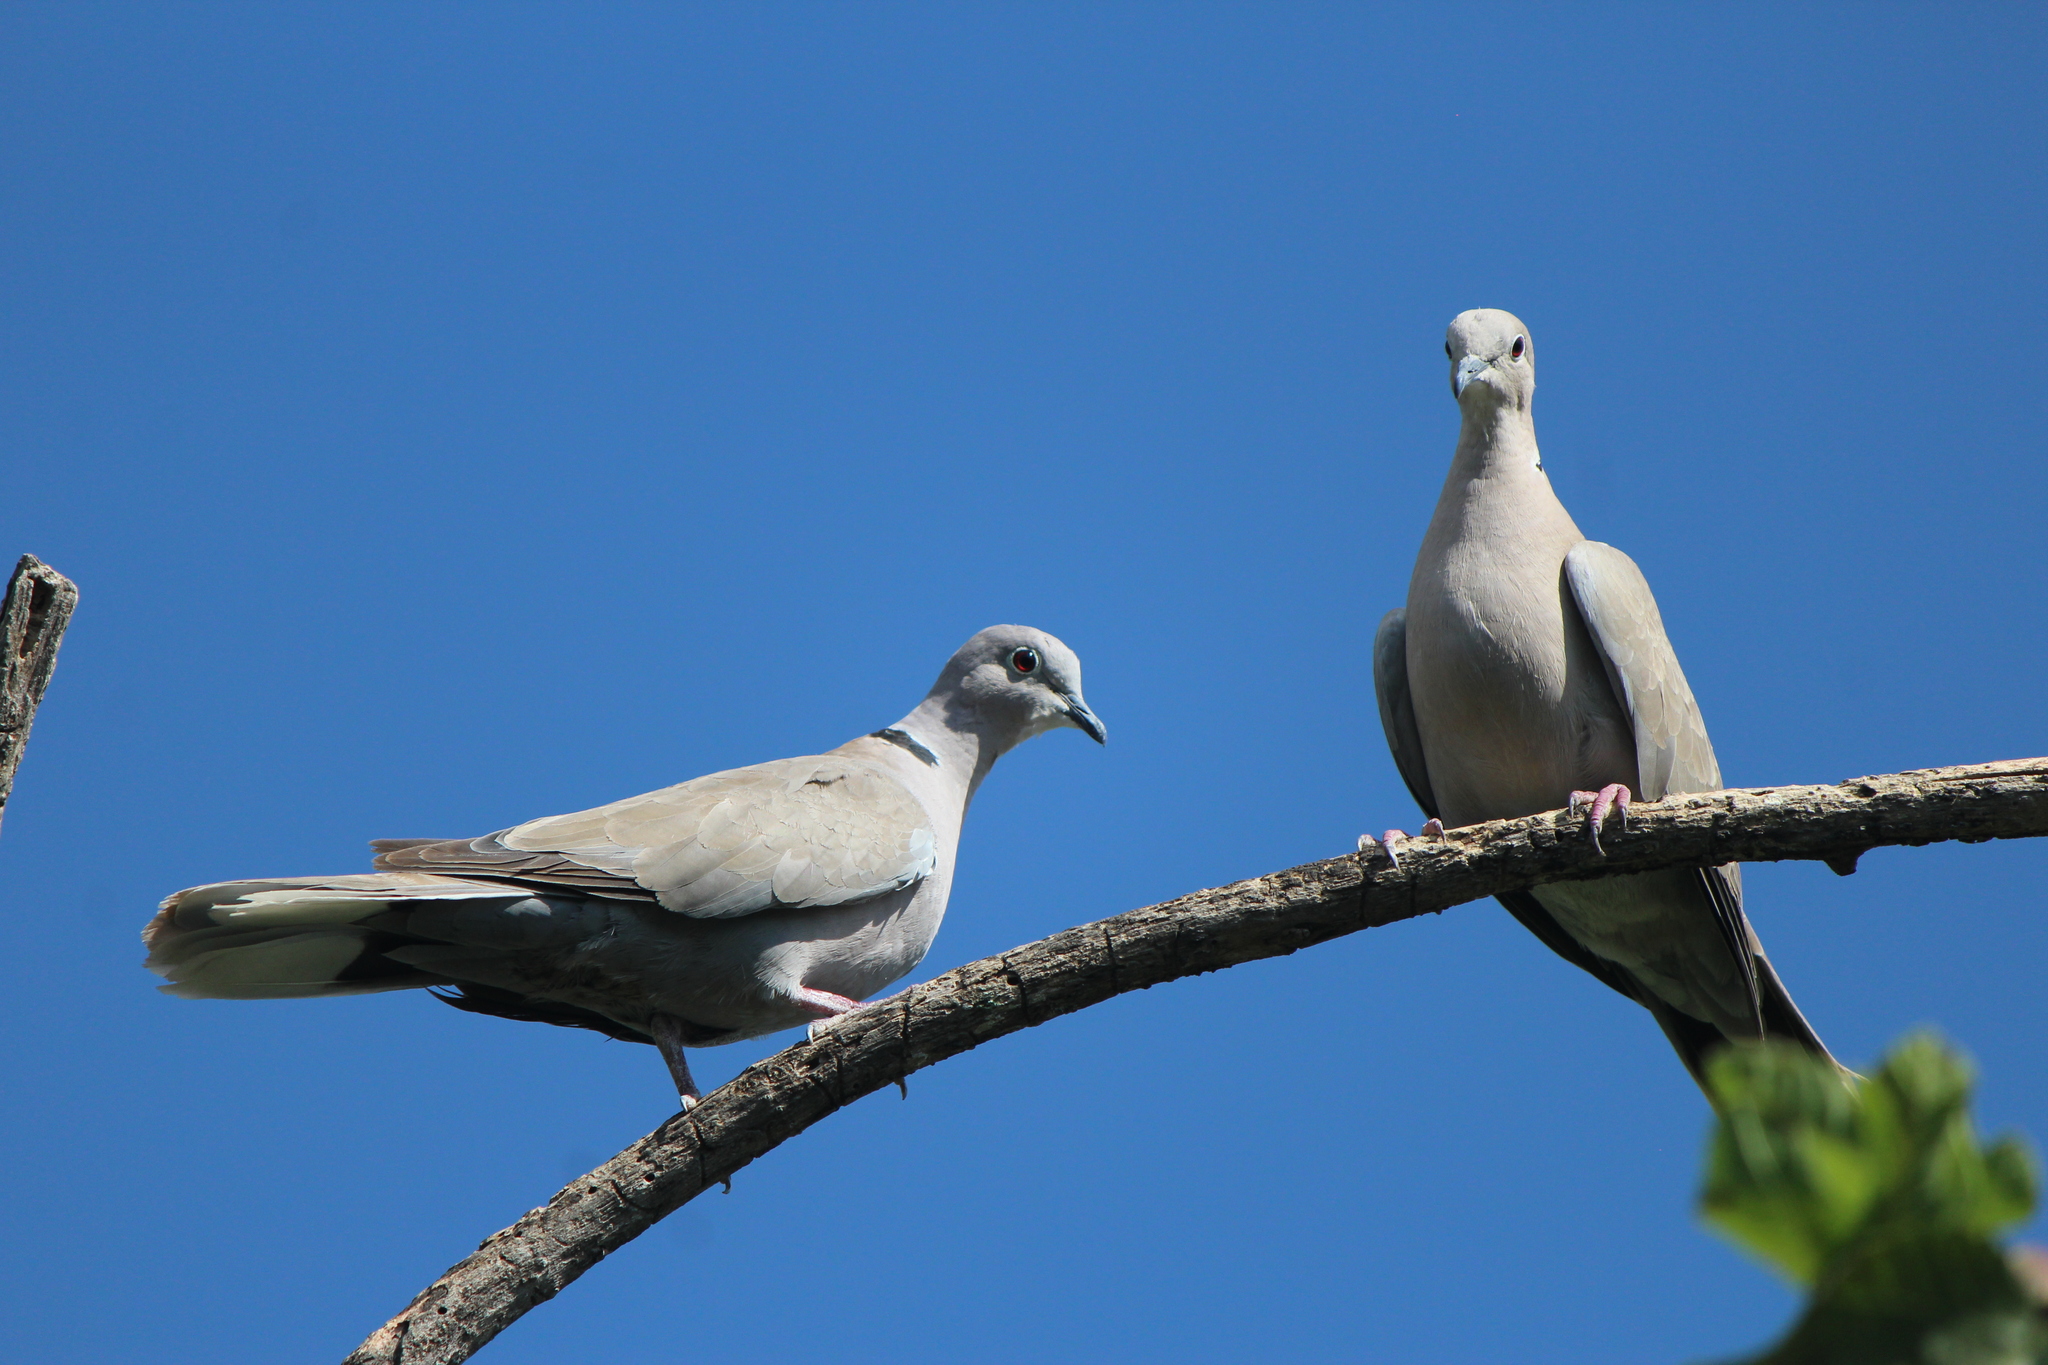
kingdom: Animalia
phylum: Chordata
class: Aves
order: Columbiformes
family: Columbidae
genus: Streptopelia
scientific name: Streptopelia decaocto
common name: Eurasian collared dove
